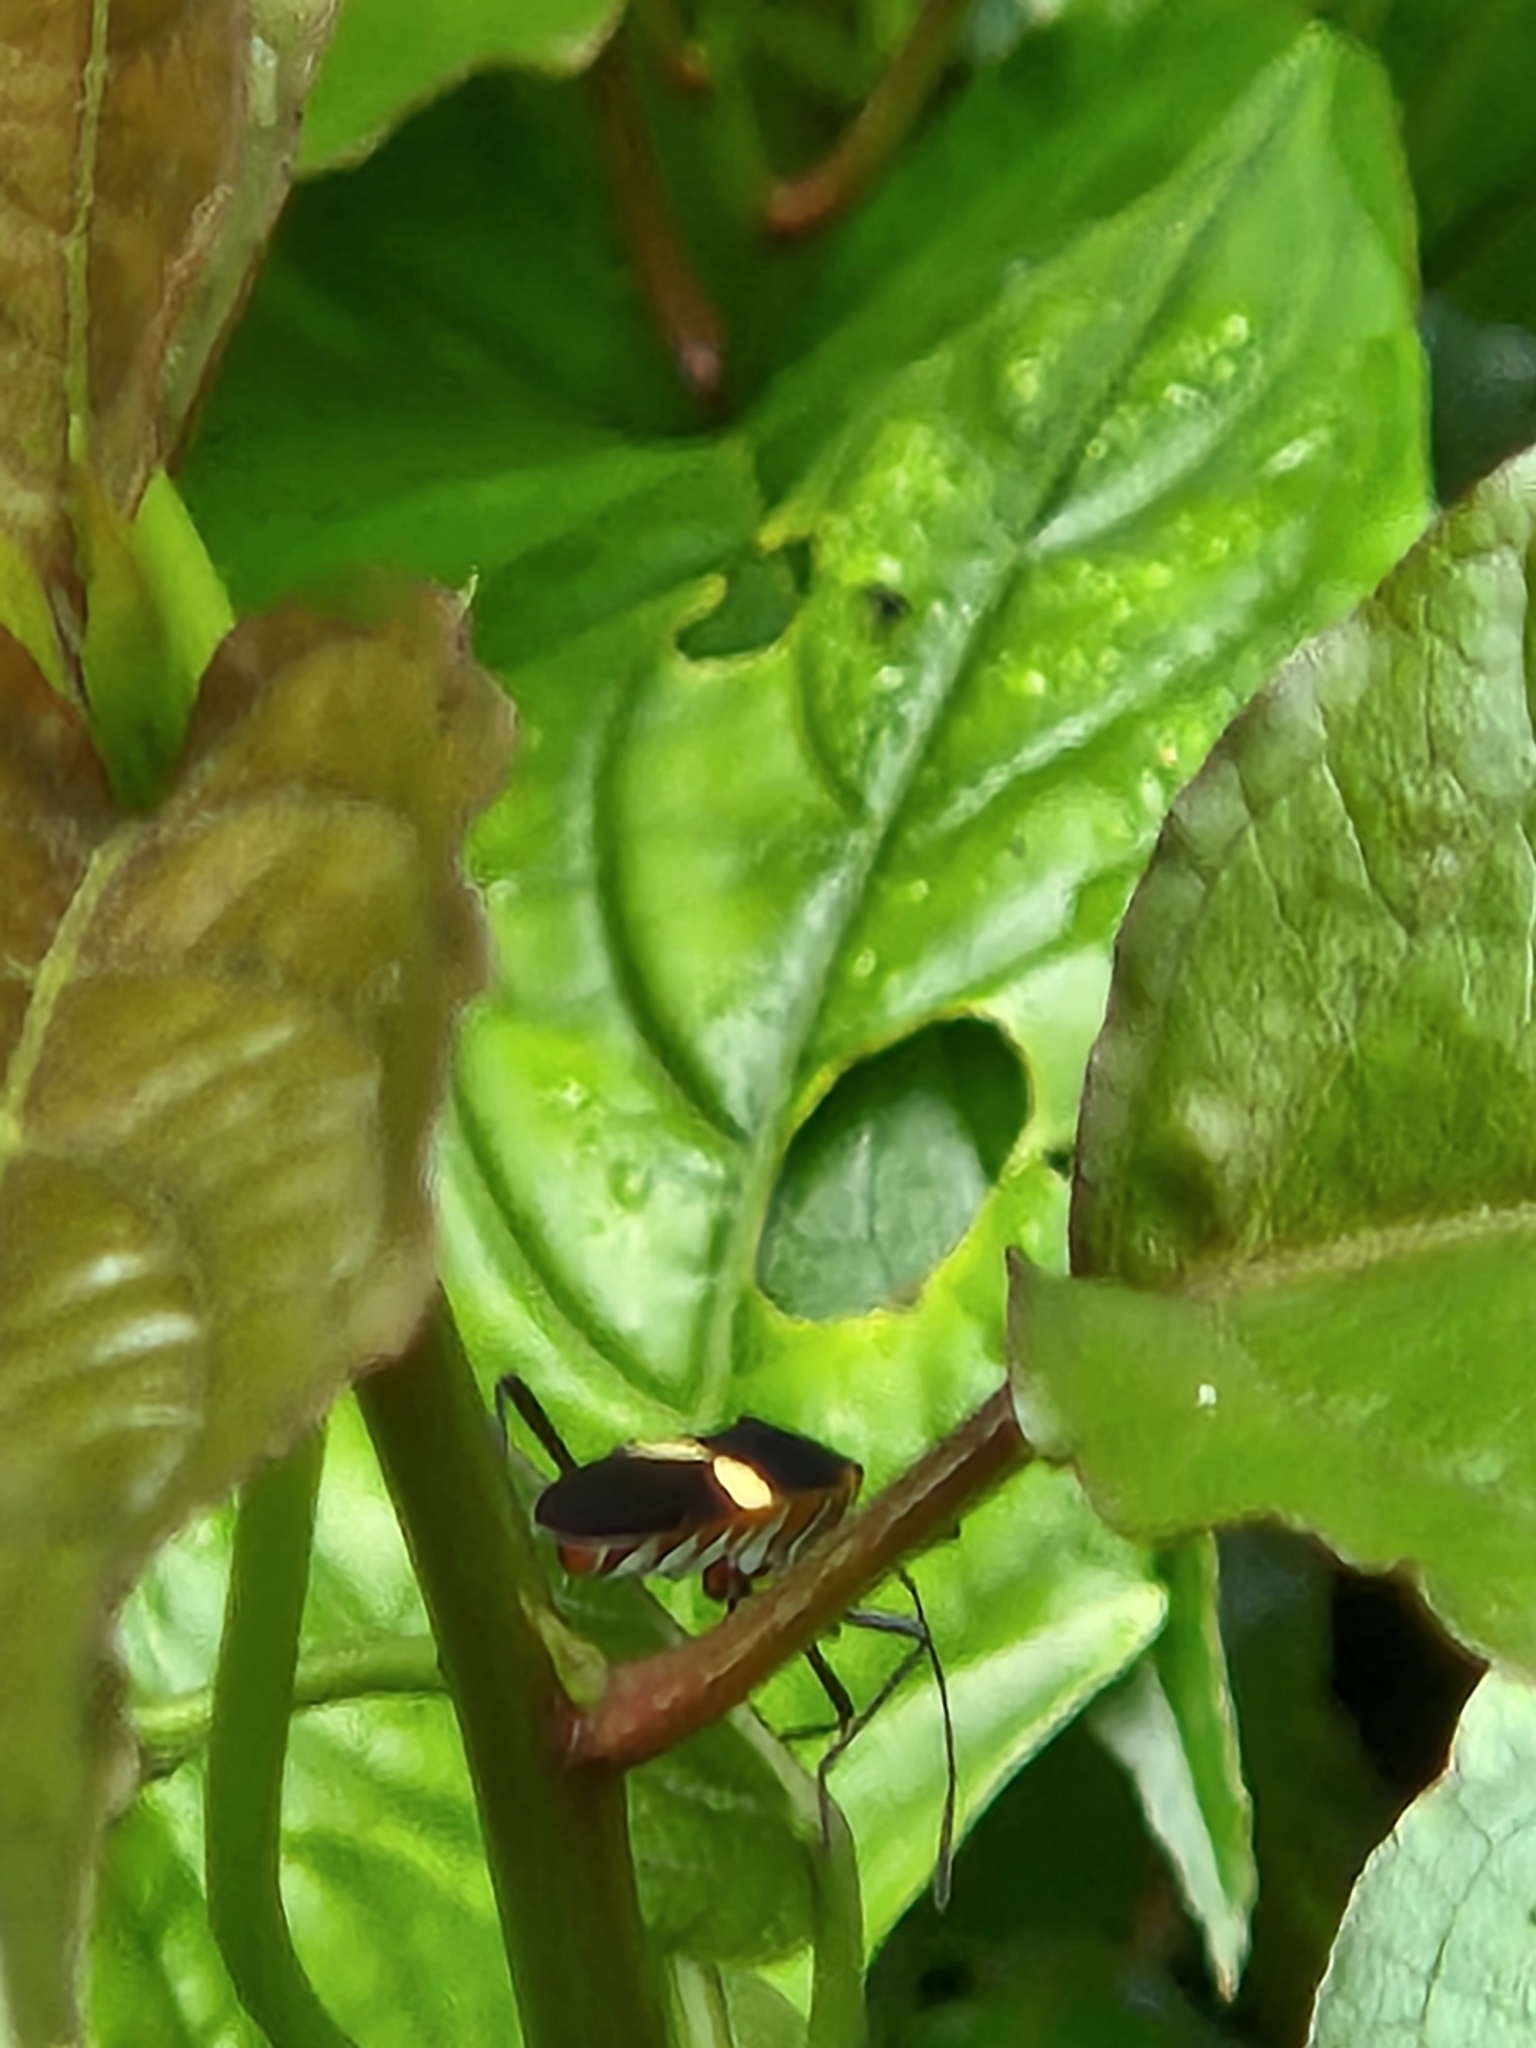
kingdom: Animalia
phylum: Arthropoda
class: Insecta
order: Hemiptera
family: Coreidae
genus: Hypselonotus
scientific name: Hypselonotus interruptus
